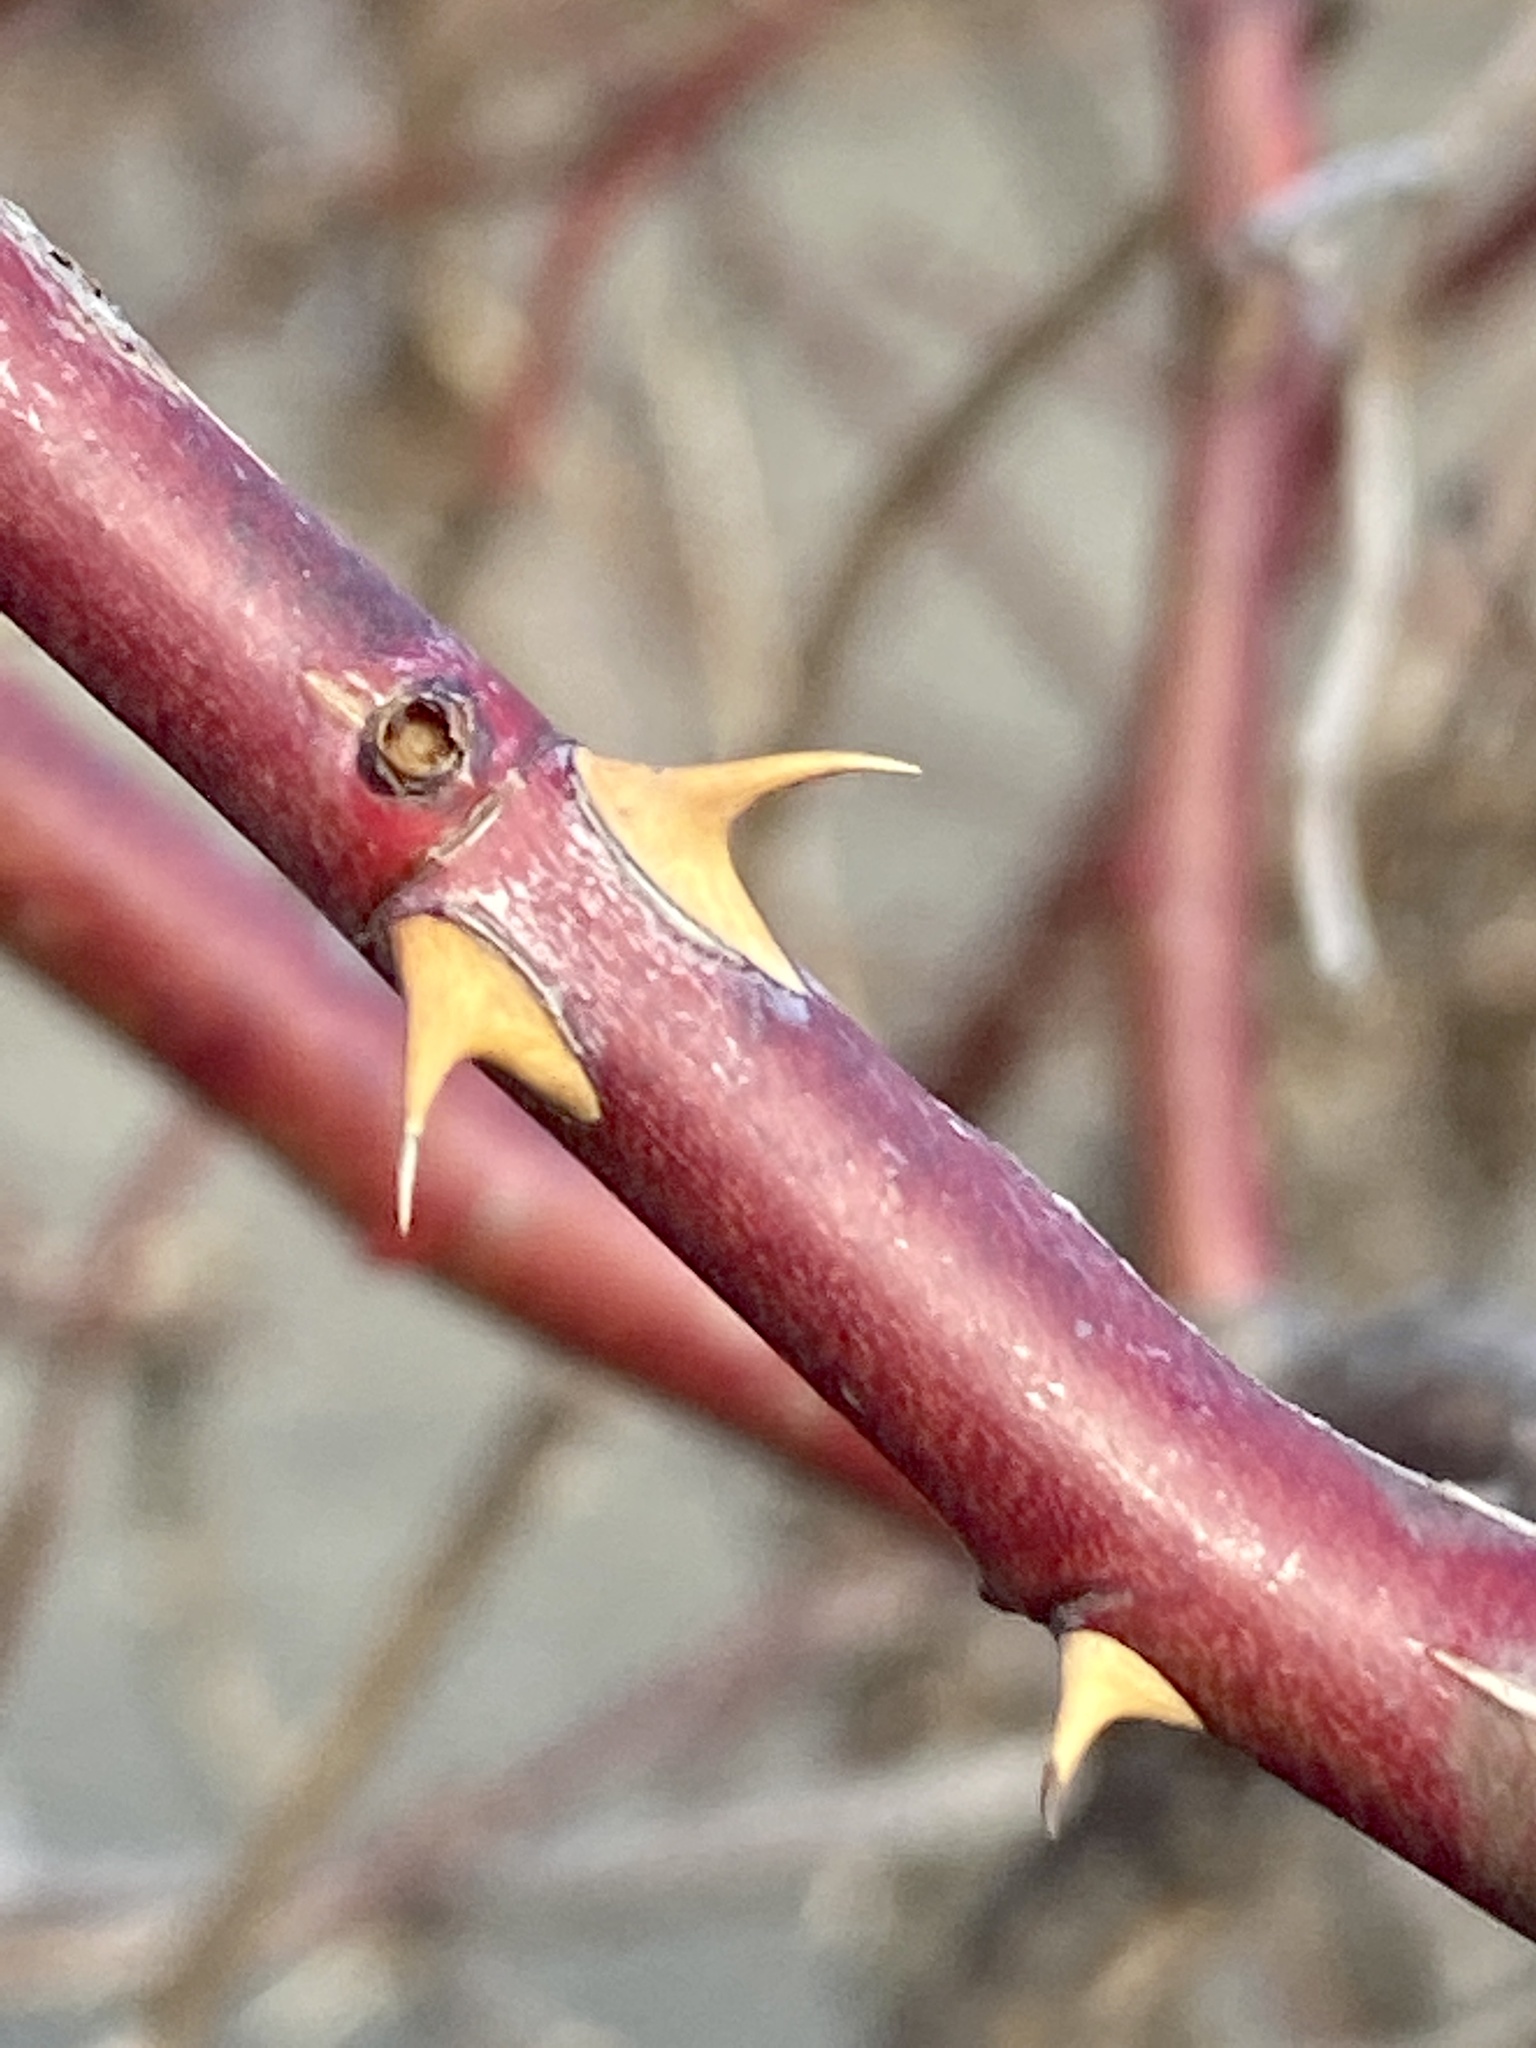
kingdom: Plantae
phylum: Tracheophyta
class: Magnoliopsida
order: Rosales
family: Rosaceae
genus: Rosa
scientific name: Rosa multiflora
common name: Multiflora rose
